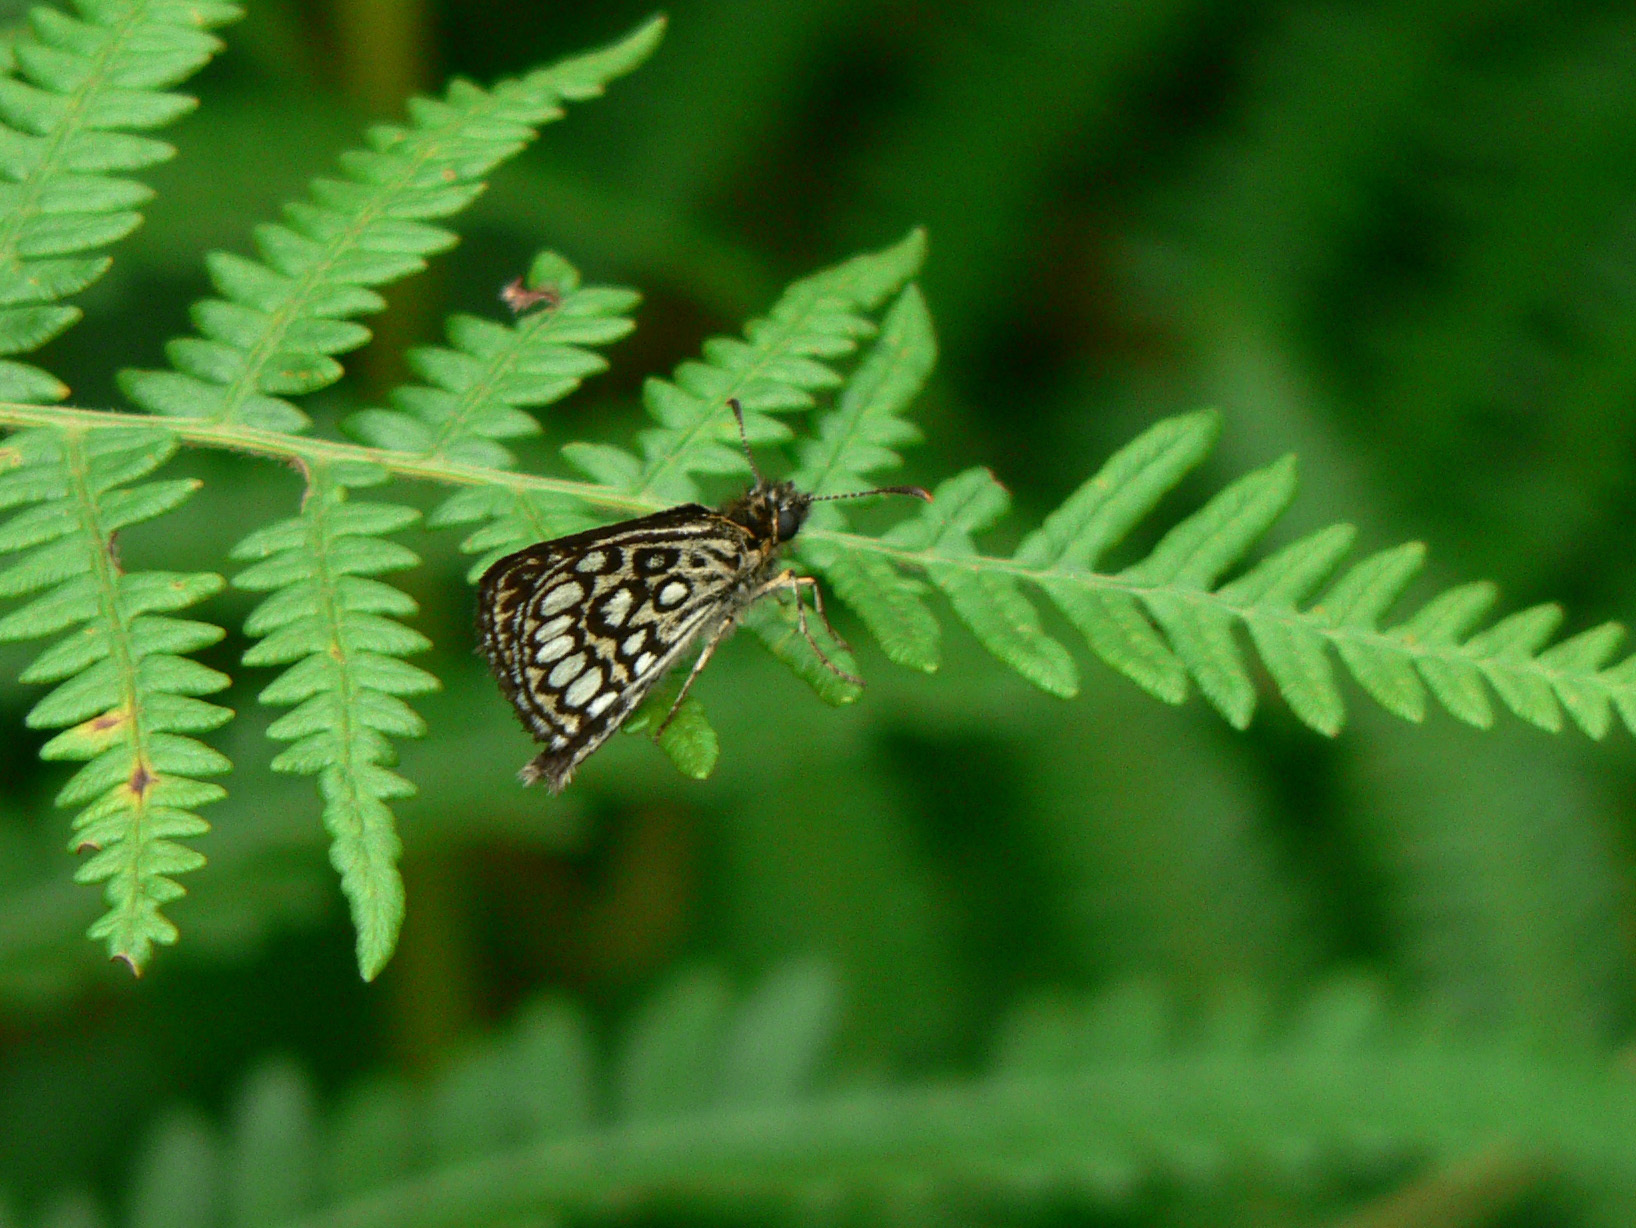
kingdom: Animalia
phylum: Arthropoda
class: Insecta
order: Lepidoptera
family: Hesperiidae
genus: Heteropterus
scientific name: Heteropterus morpheus
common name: Large chequered skipper
